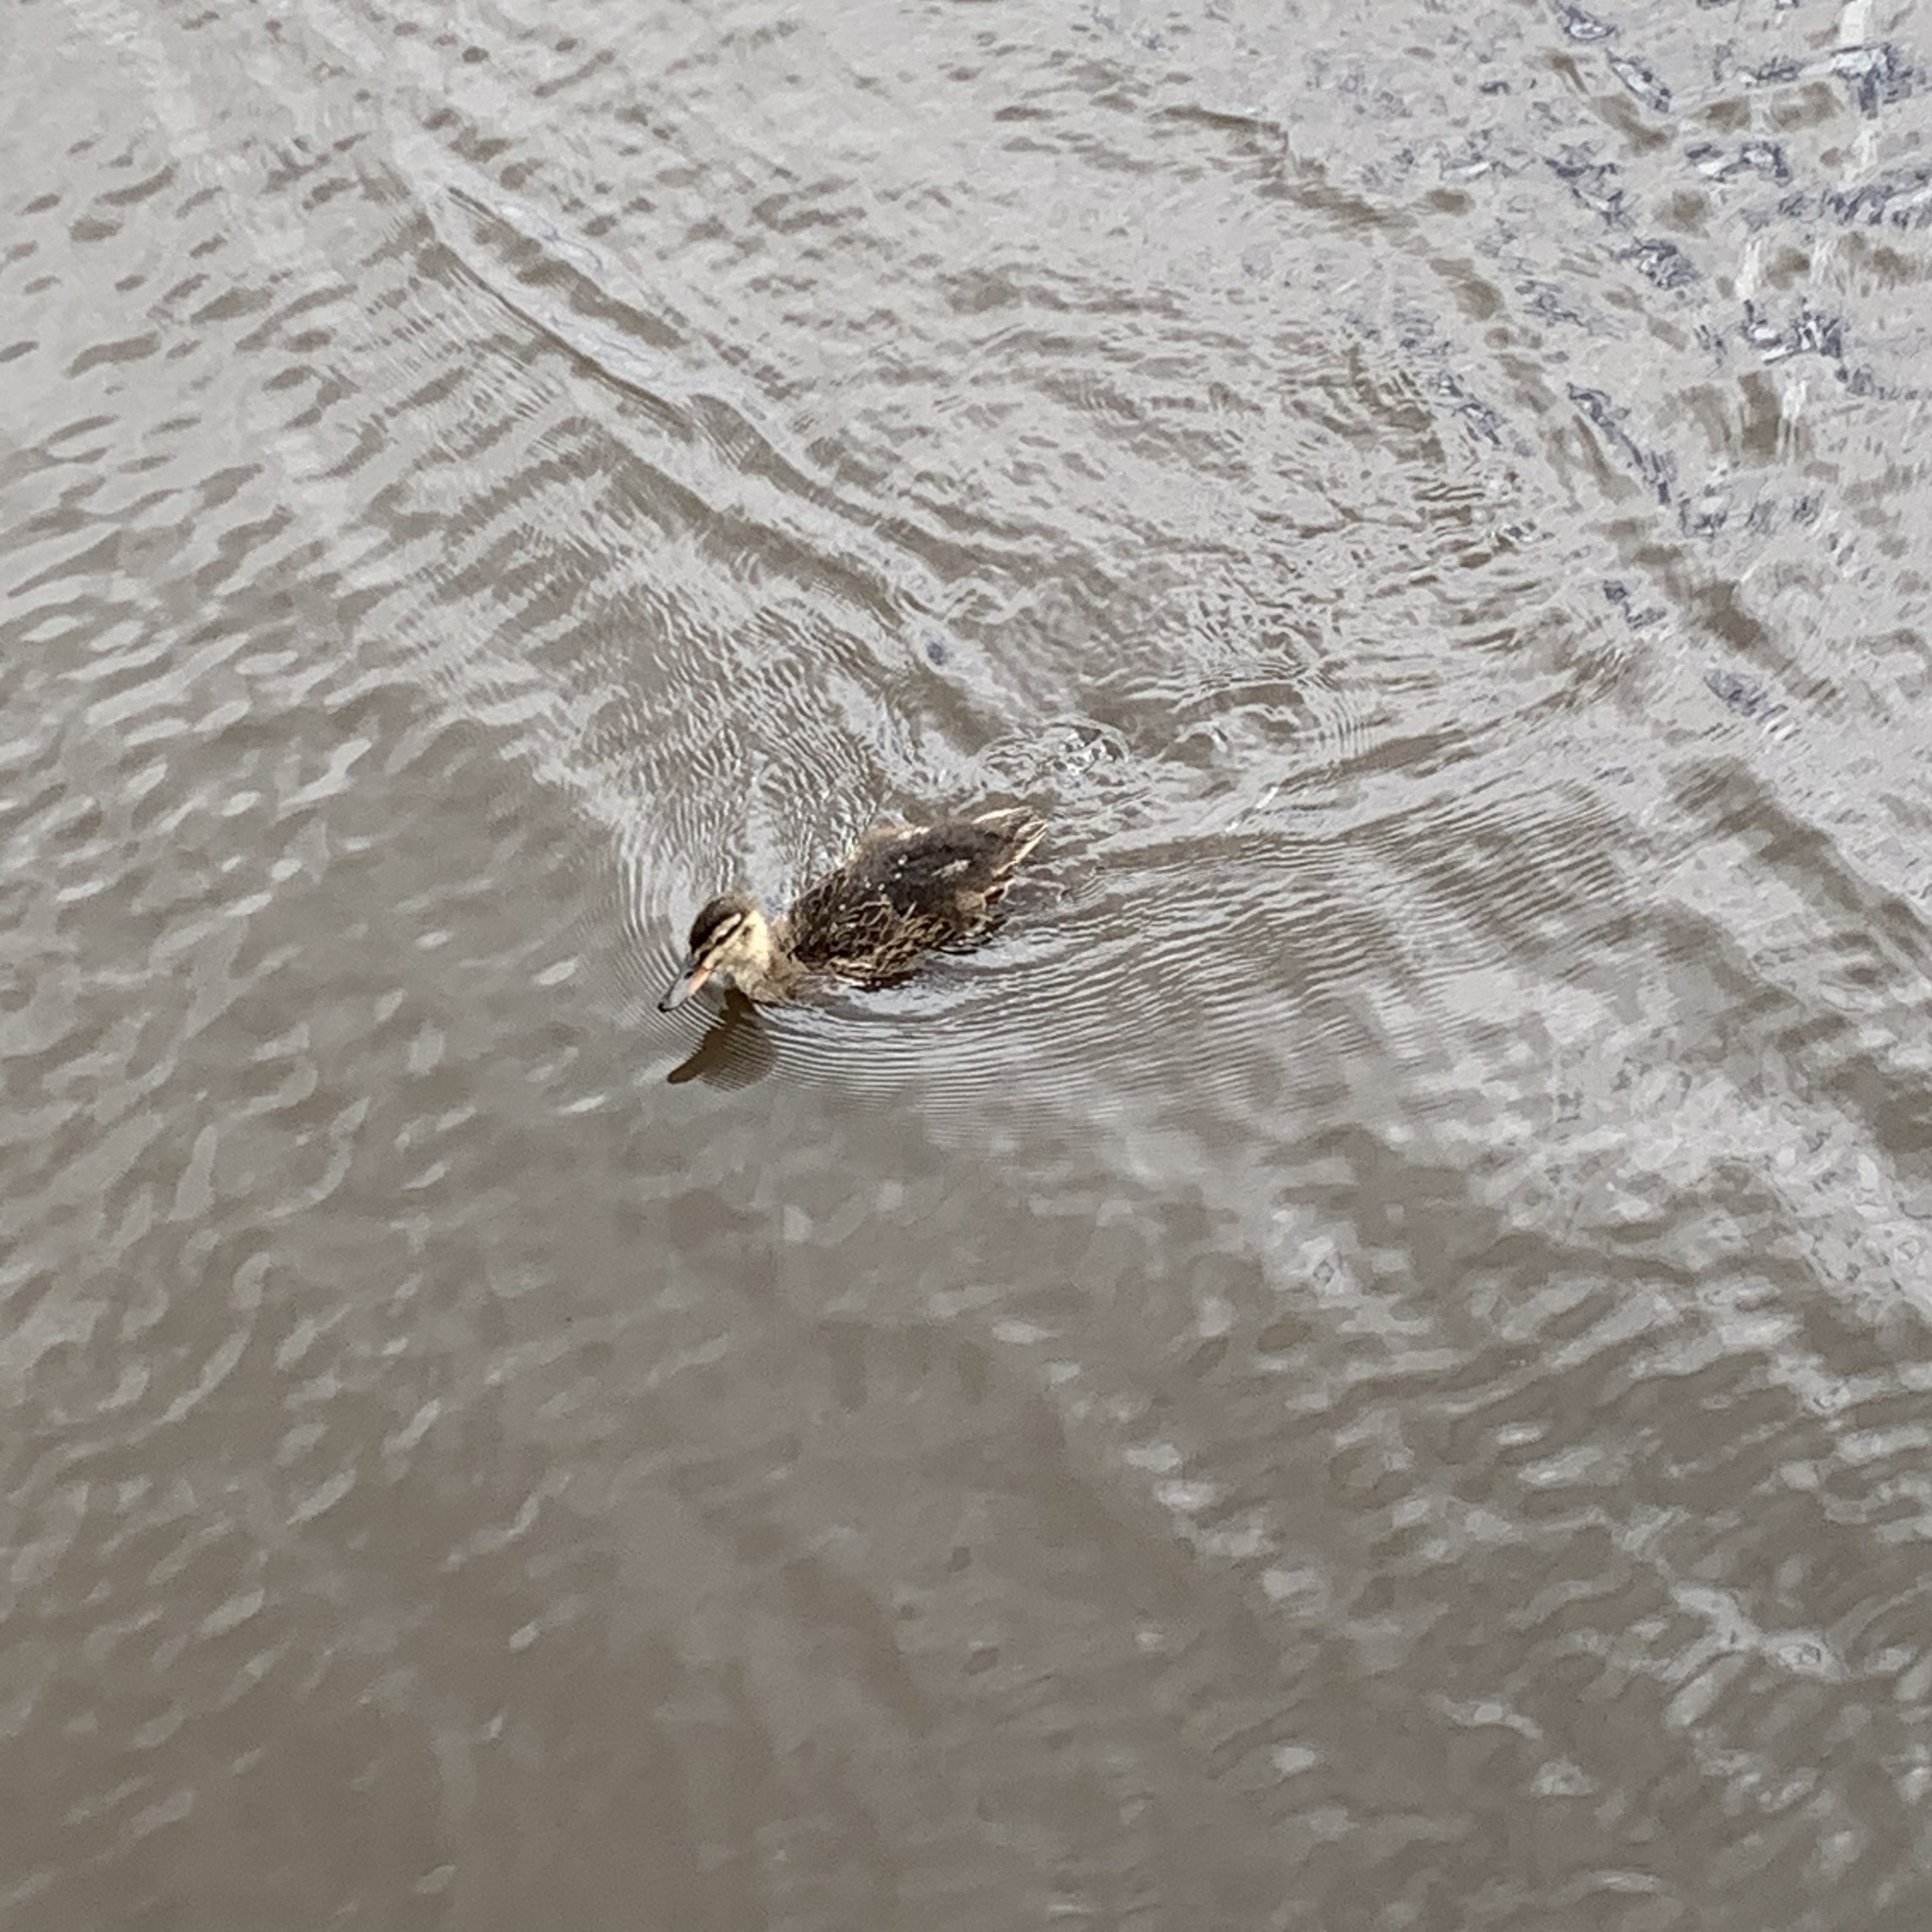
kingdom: Animalia
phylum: Chordata
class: Aves
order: Anseriformes
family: Anatidae
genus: Anas
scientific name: Anas platyrhynchos
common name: Mallard
